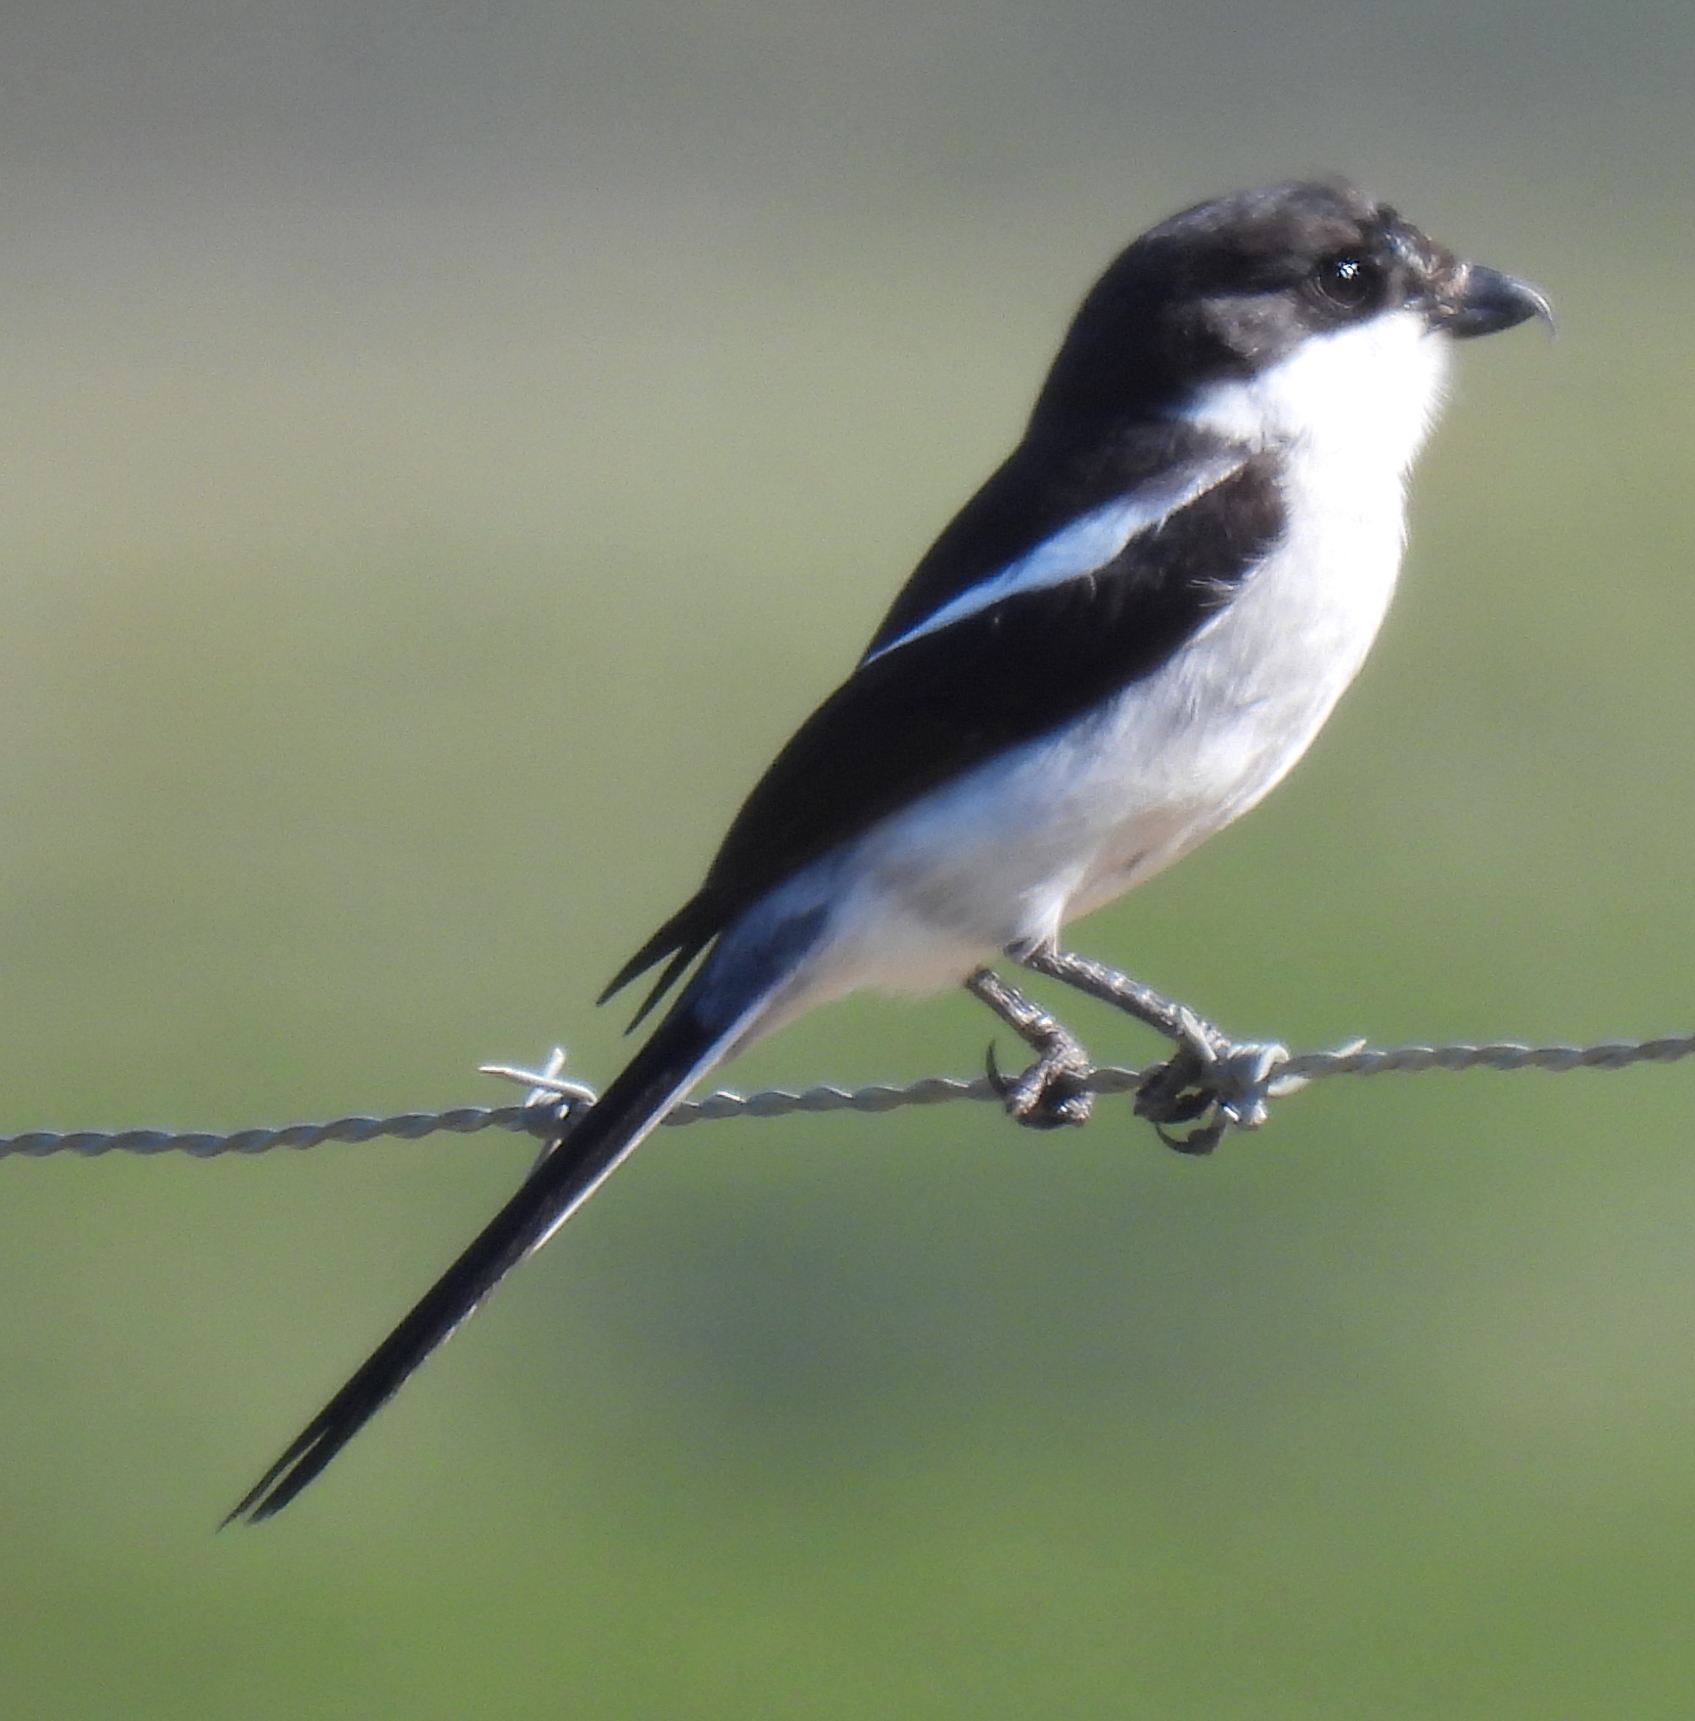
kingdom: Animalia
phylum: Chordata
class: Aves
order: Passeriformes
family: Laniidae
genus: Lanius
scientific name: Lanius collaris
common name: Southern fiscal
